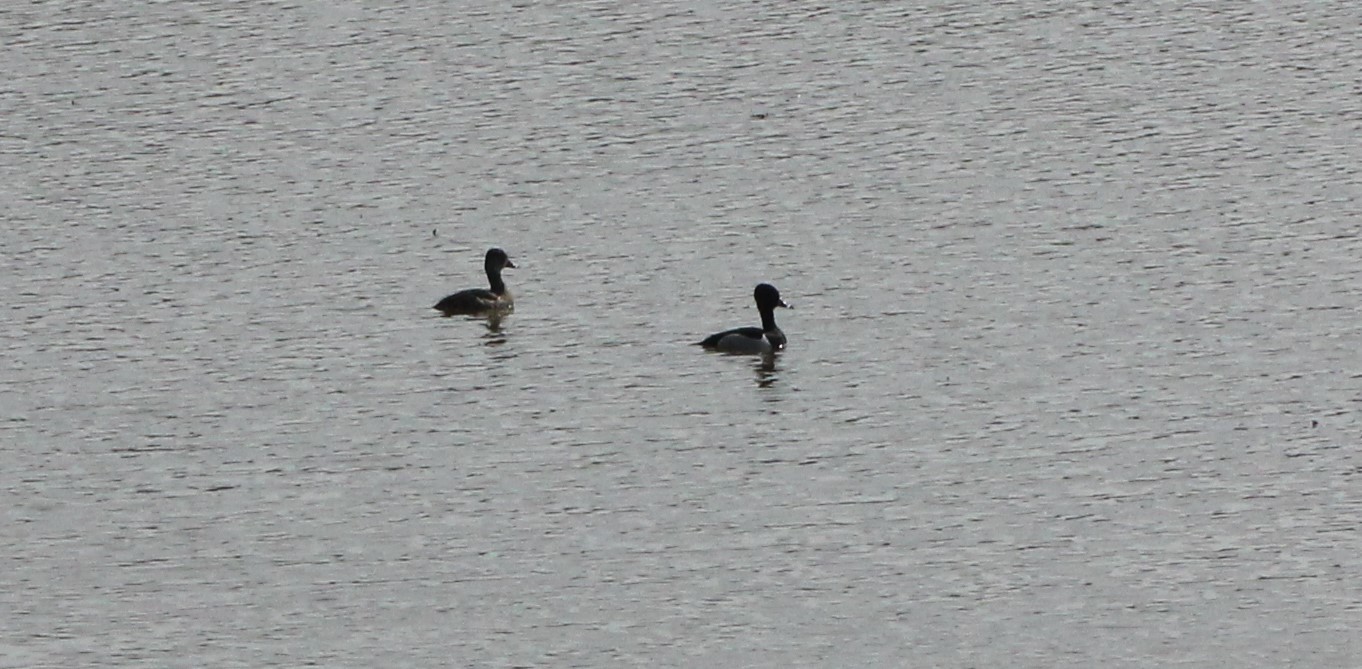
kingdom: Animalia
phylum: Chordata
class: Aves
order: Anseriformes
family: Anatidae
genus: Aythya
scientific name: Aythya collaris
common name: Ring-necked duck
